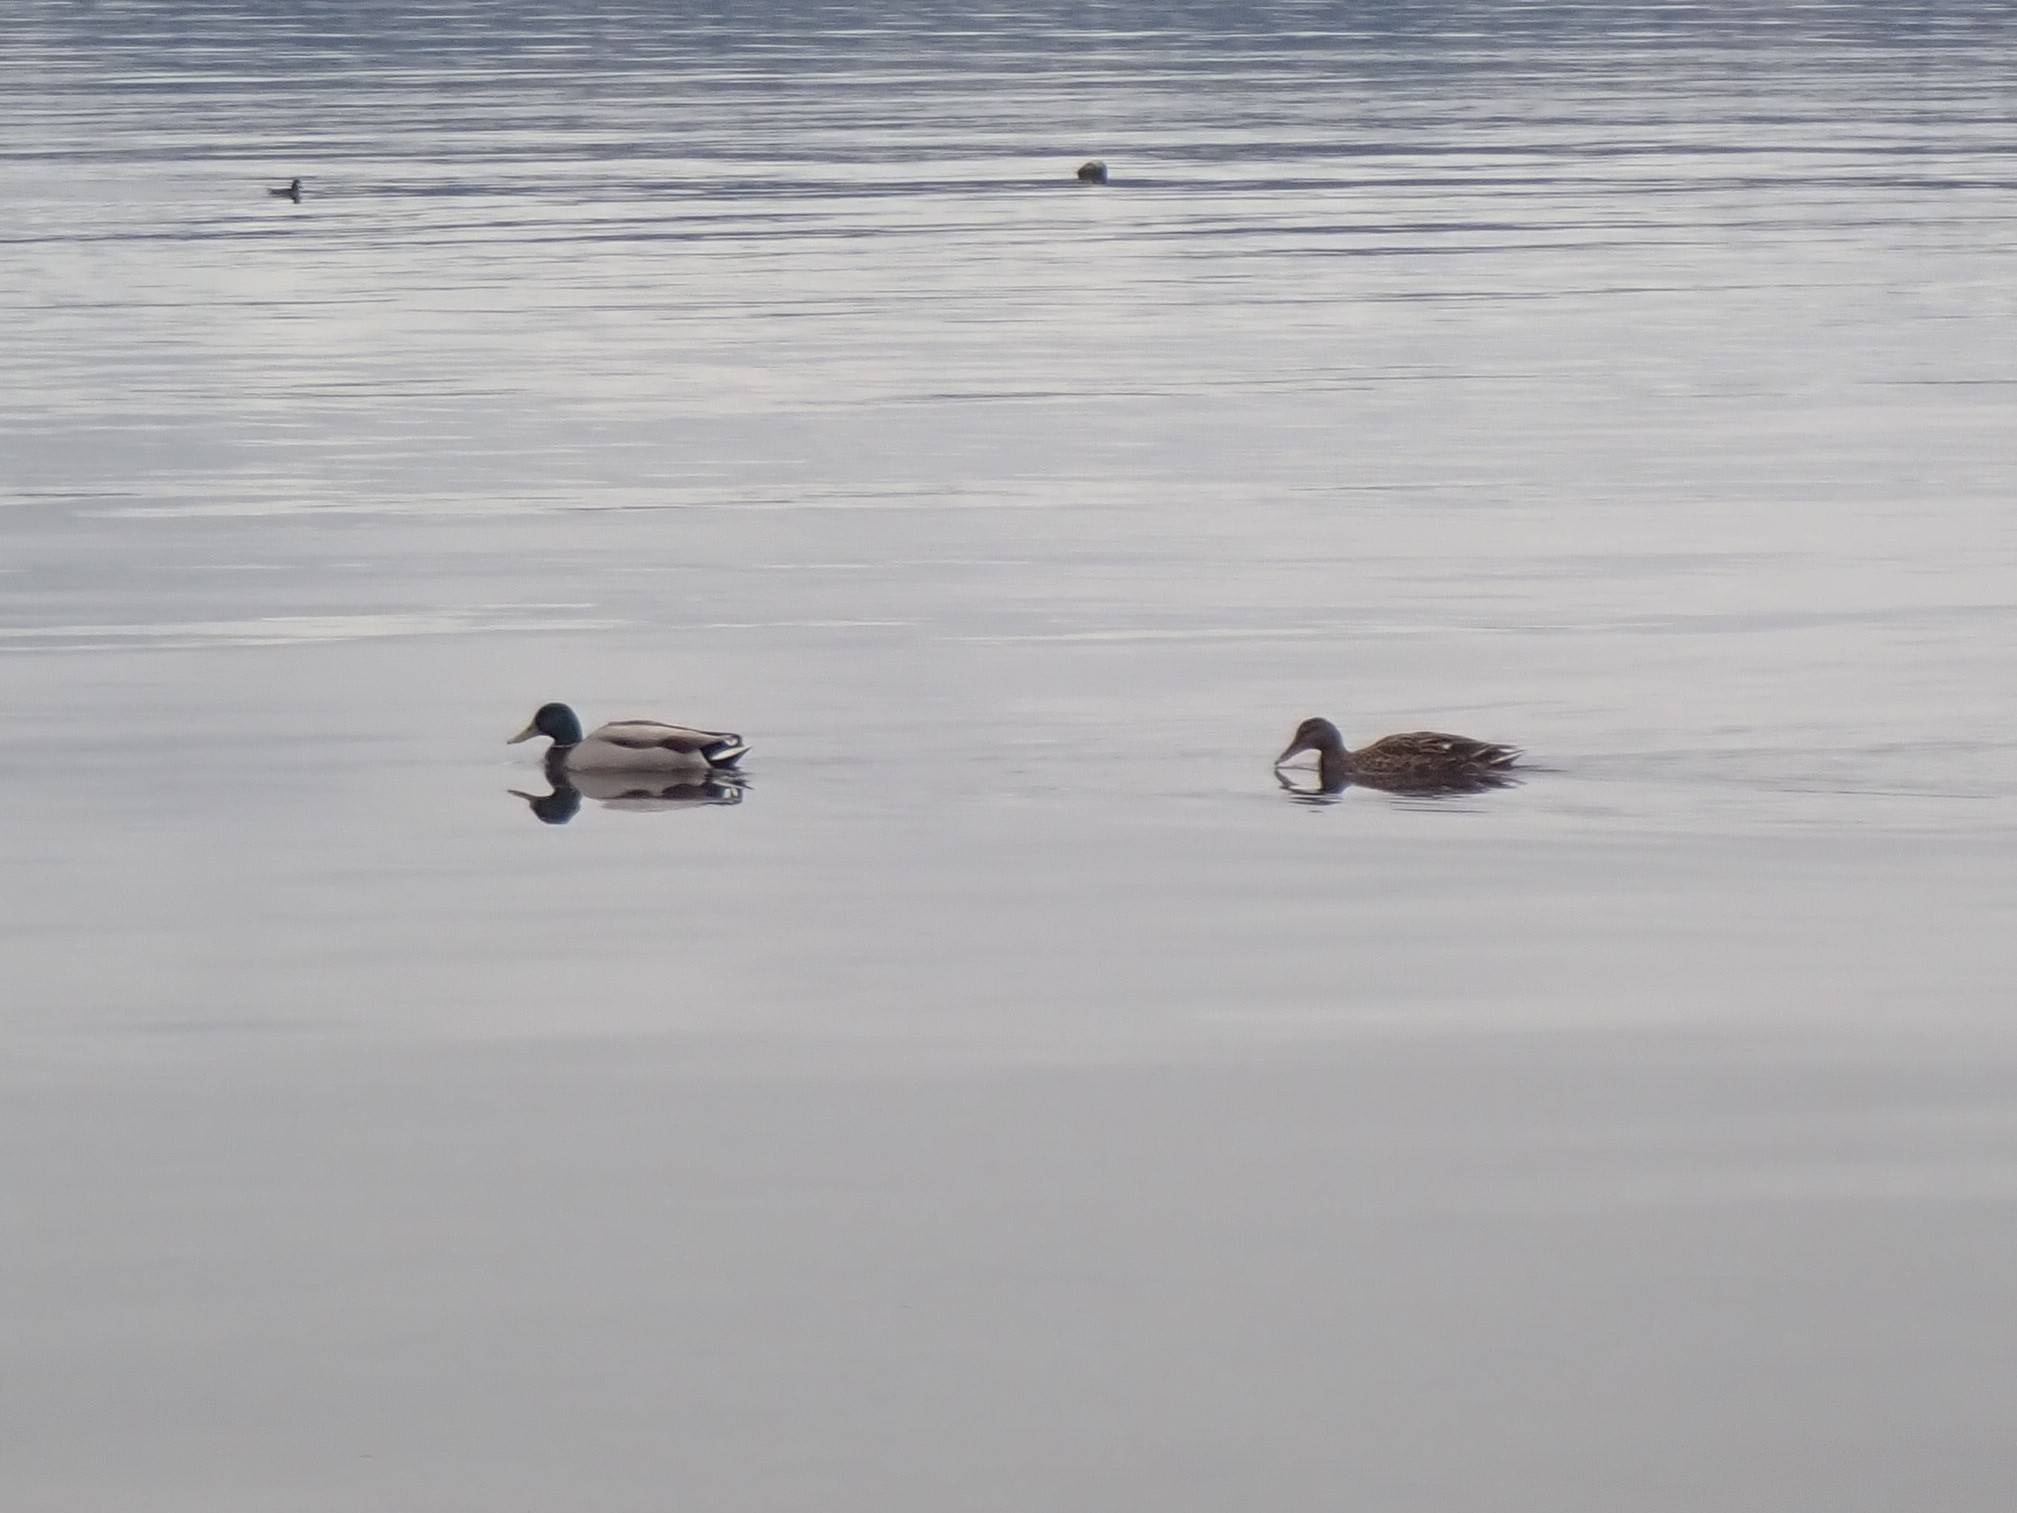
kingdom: Animalia
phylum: Chordata
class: Aves
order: Anseriformes
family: Anatidae
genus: Anas
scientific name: Anas platyrhynchos
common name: Mallard
